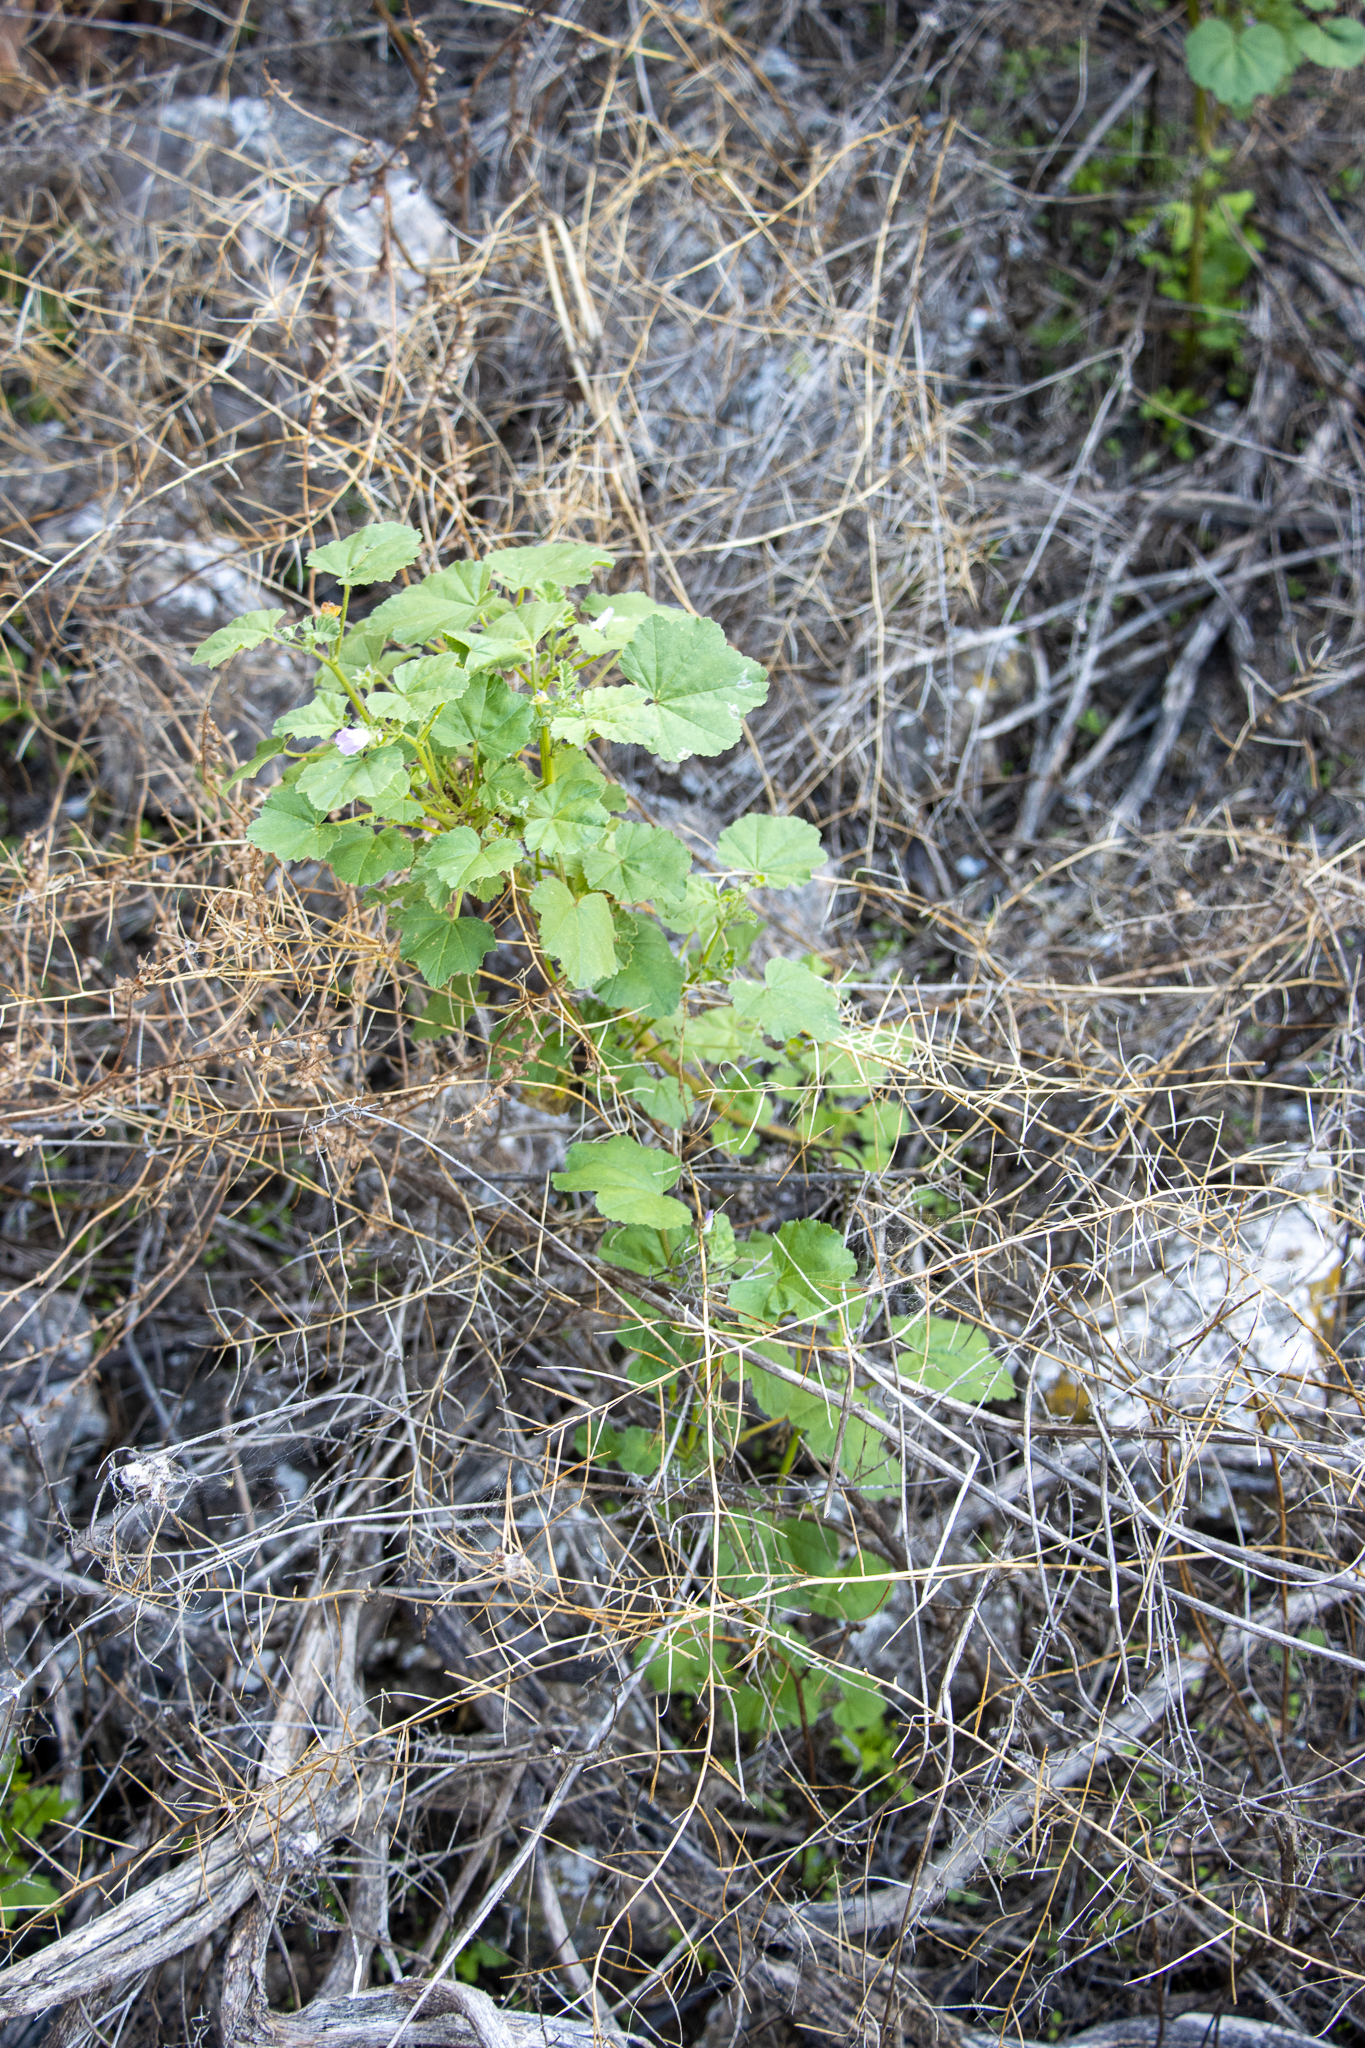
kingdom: Plantae
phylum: Tracheophyta
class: Magnoliopsida
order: Malvales
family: Malvaceae
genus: Malva
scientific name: Malva weinmanniana
